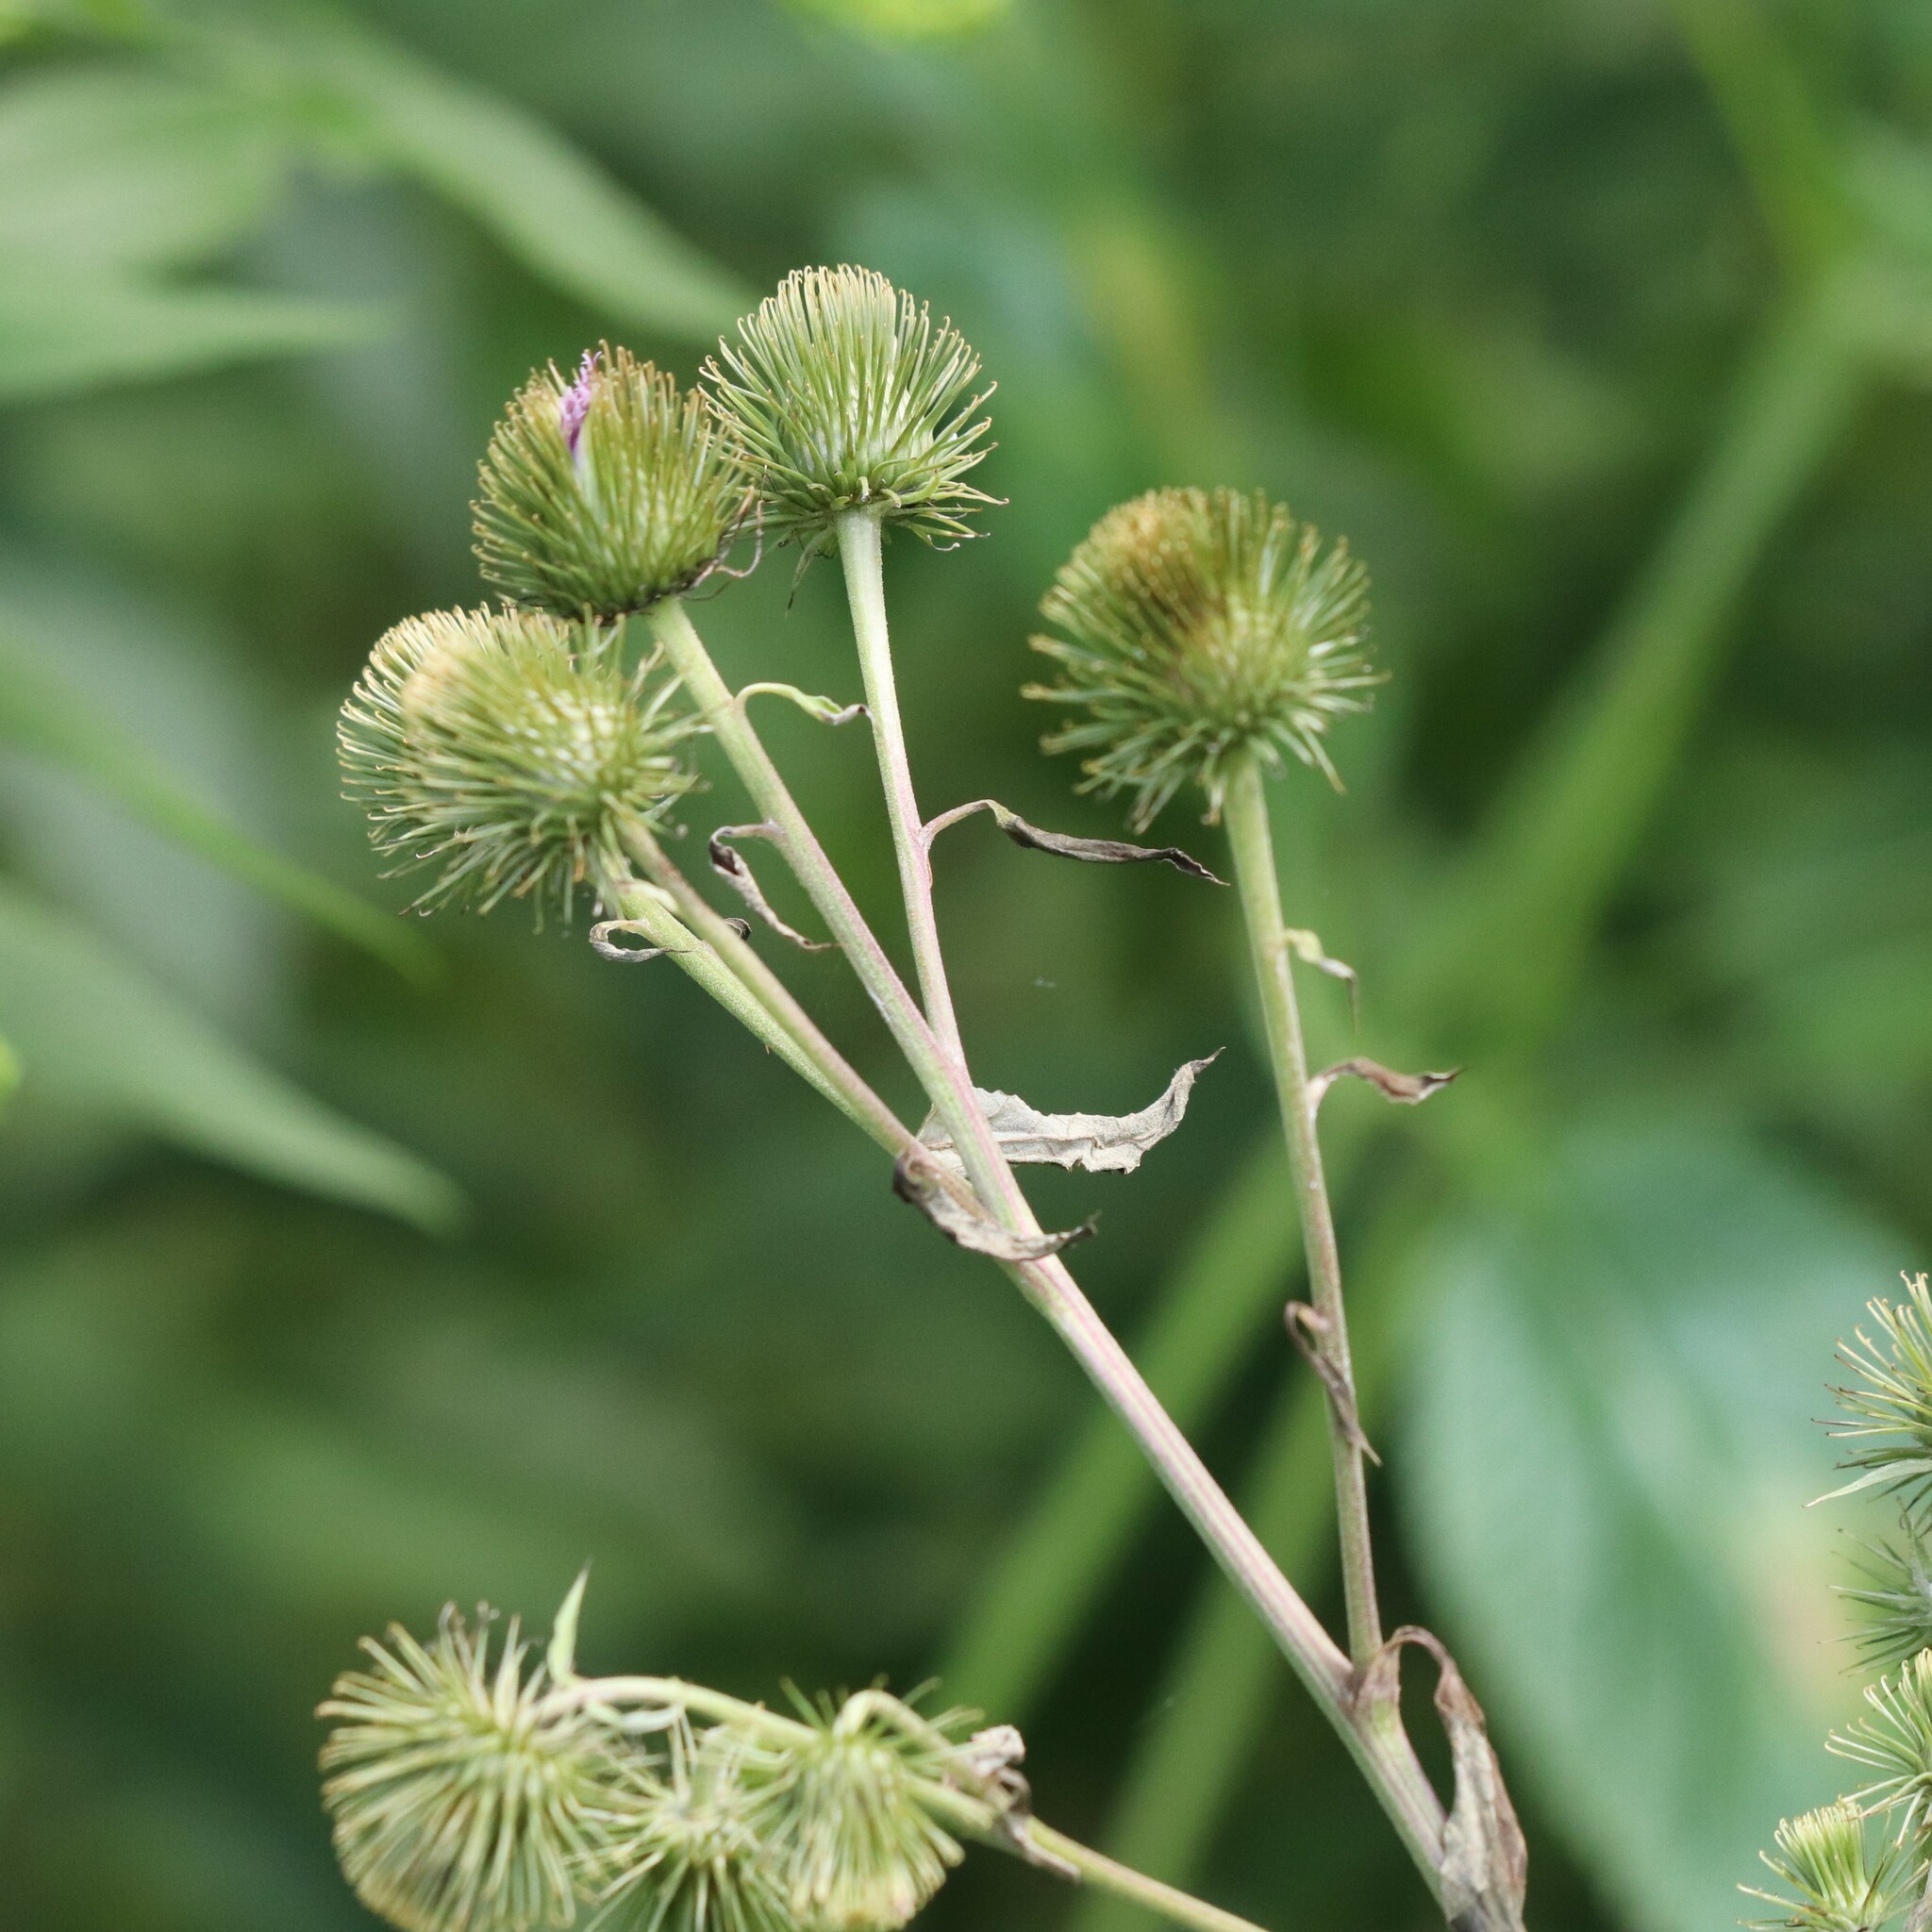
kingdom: Plantae
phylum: Tracheophyta
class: Magnoliopsida
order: Asterales
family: Asteraceae
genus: Arctium
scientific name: Arctium lappa
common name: Greater burdock
